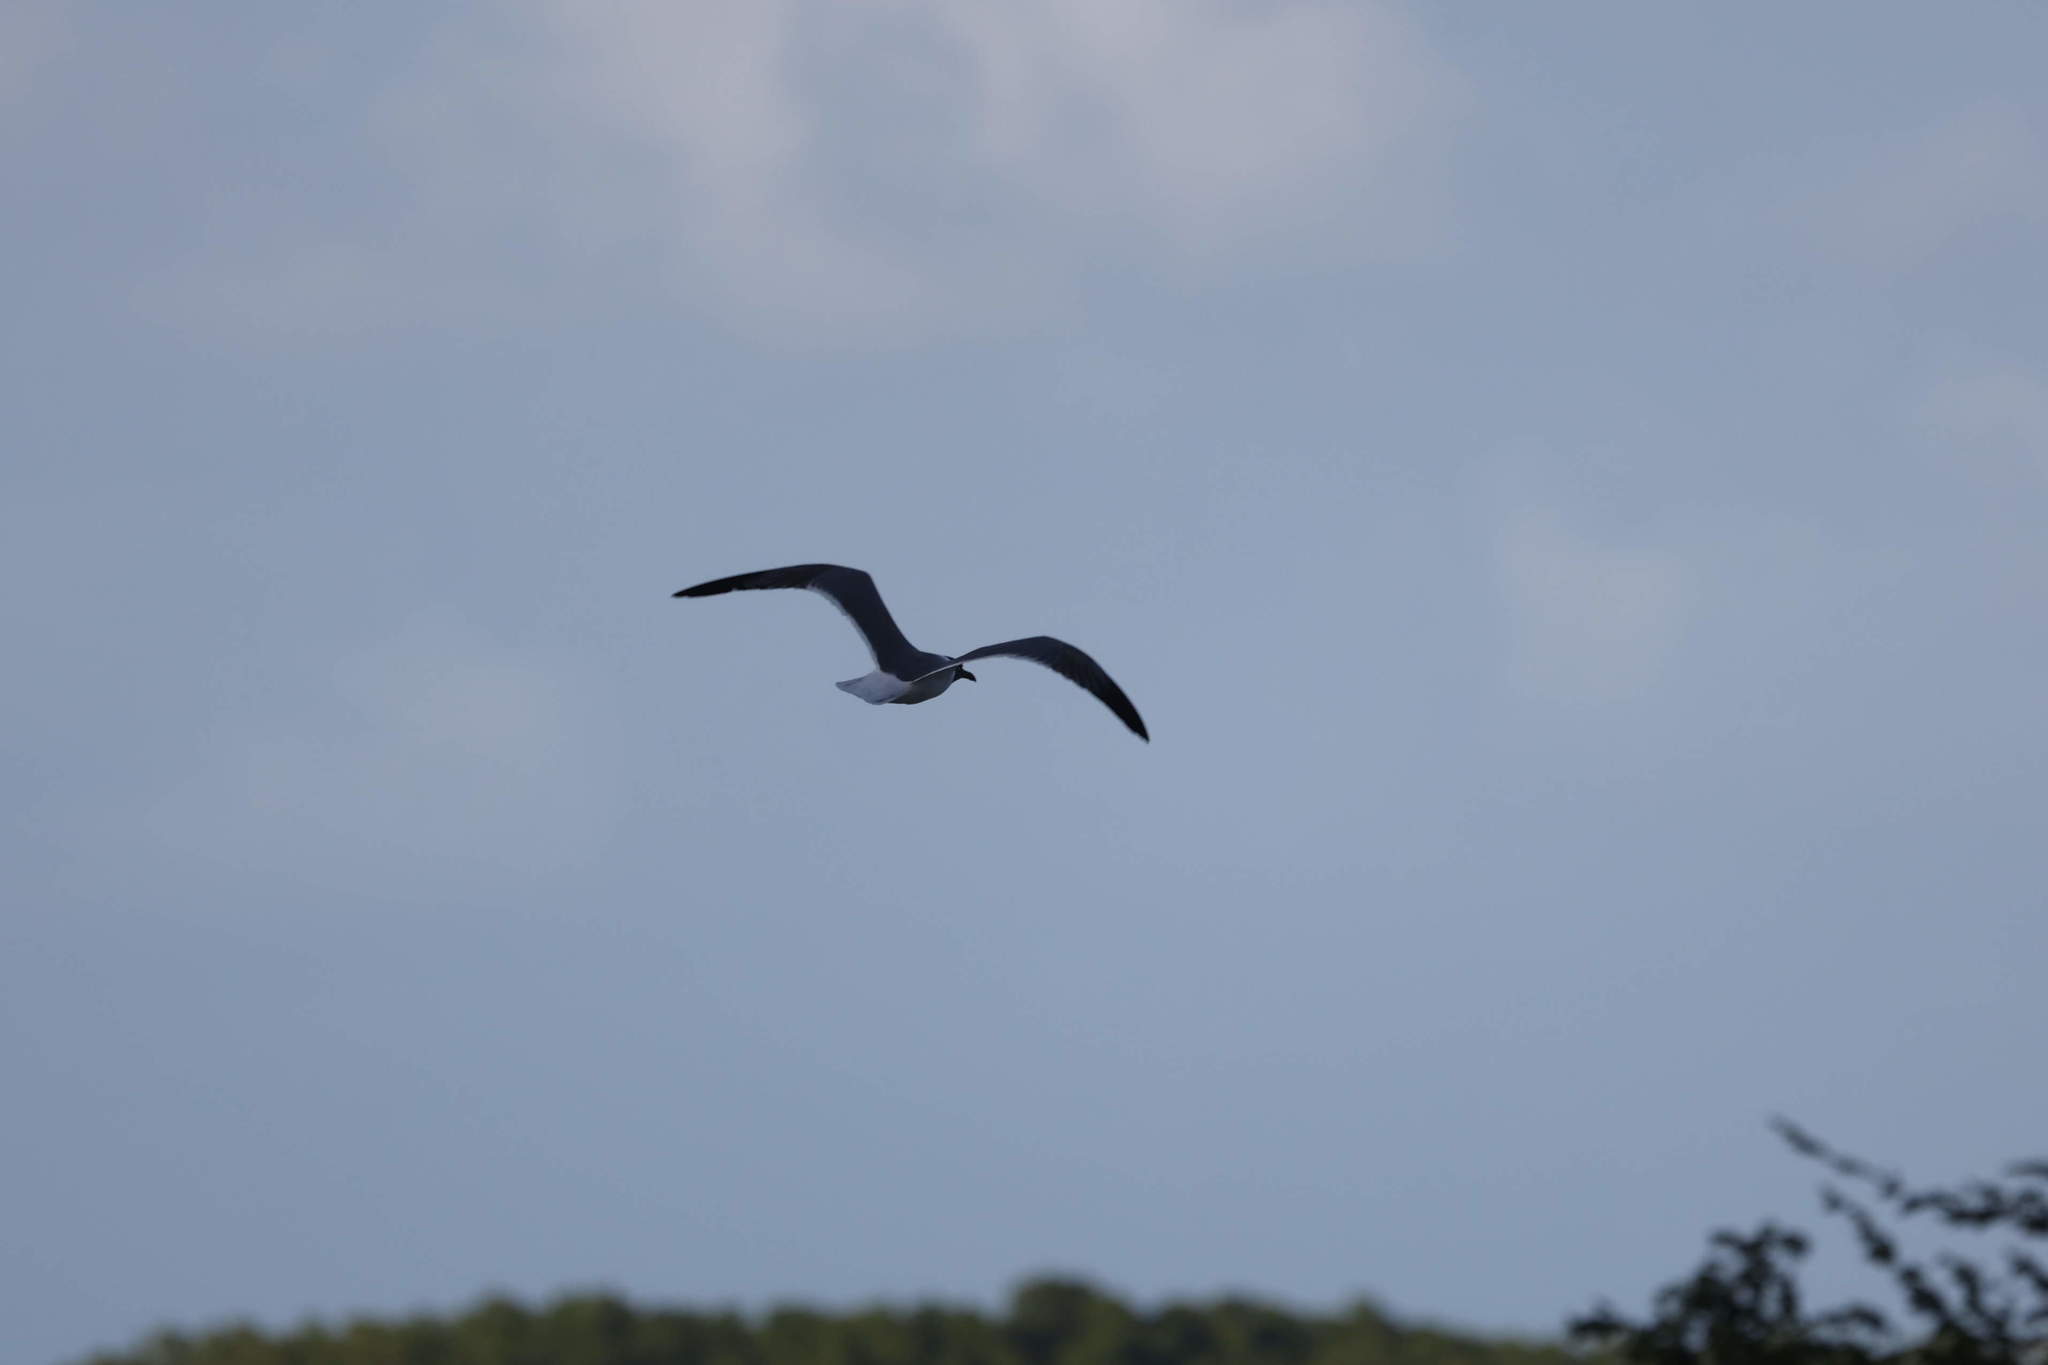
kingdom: Animalia
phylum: Chordata
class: Aves
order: Charadriiformes
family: Laridae
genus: Leucophaeus
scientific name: Leucophaeus atricilla
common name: Laughing gull
